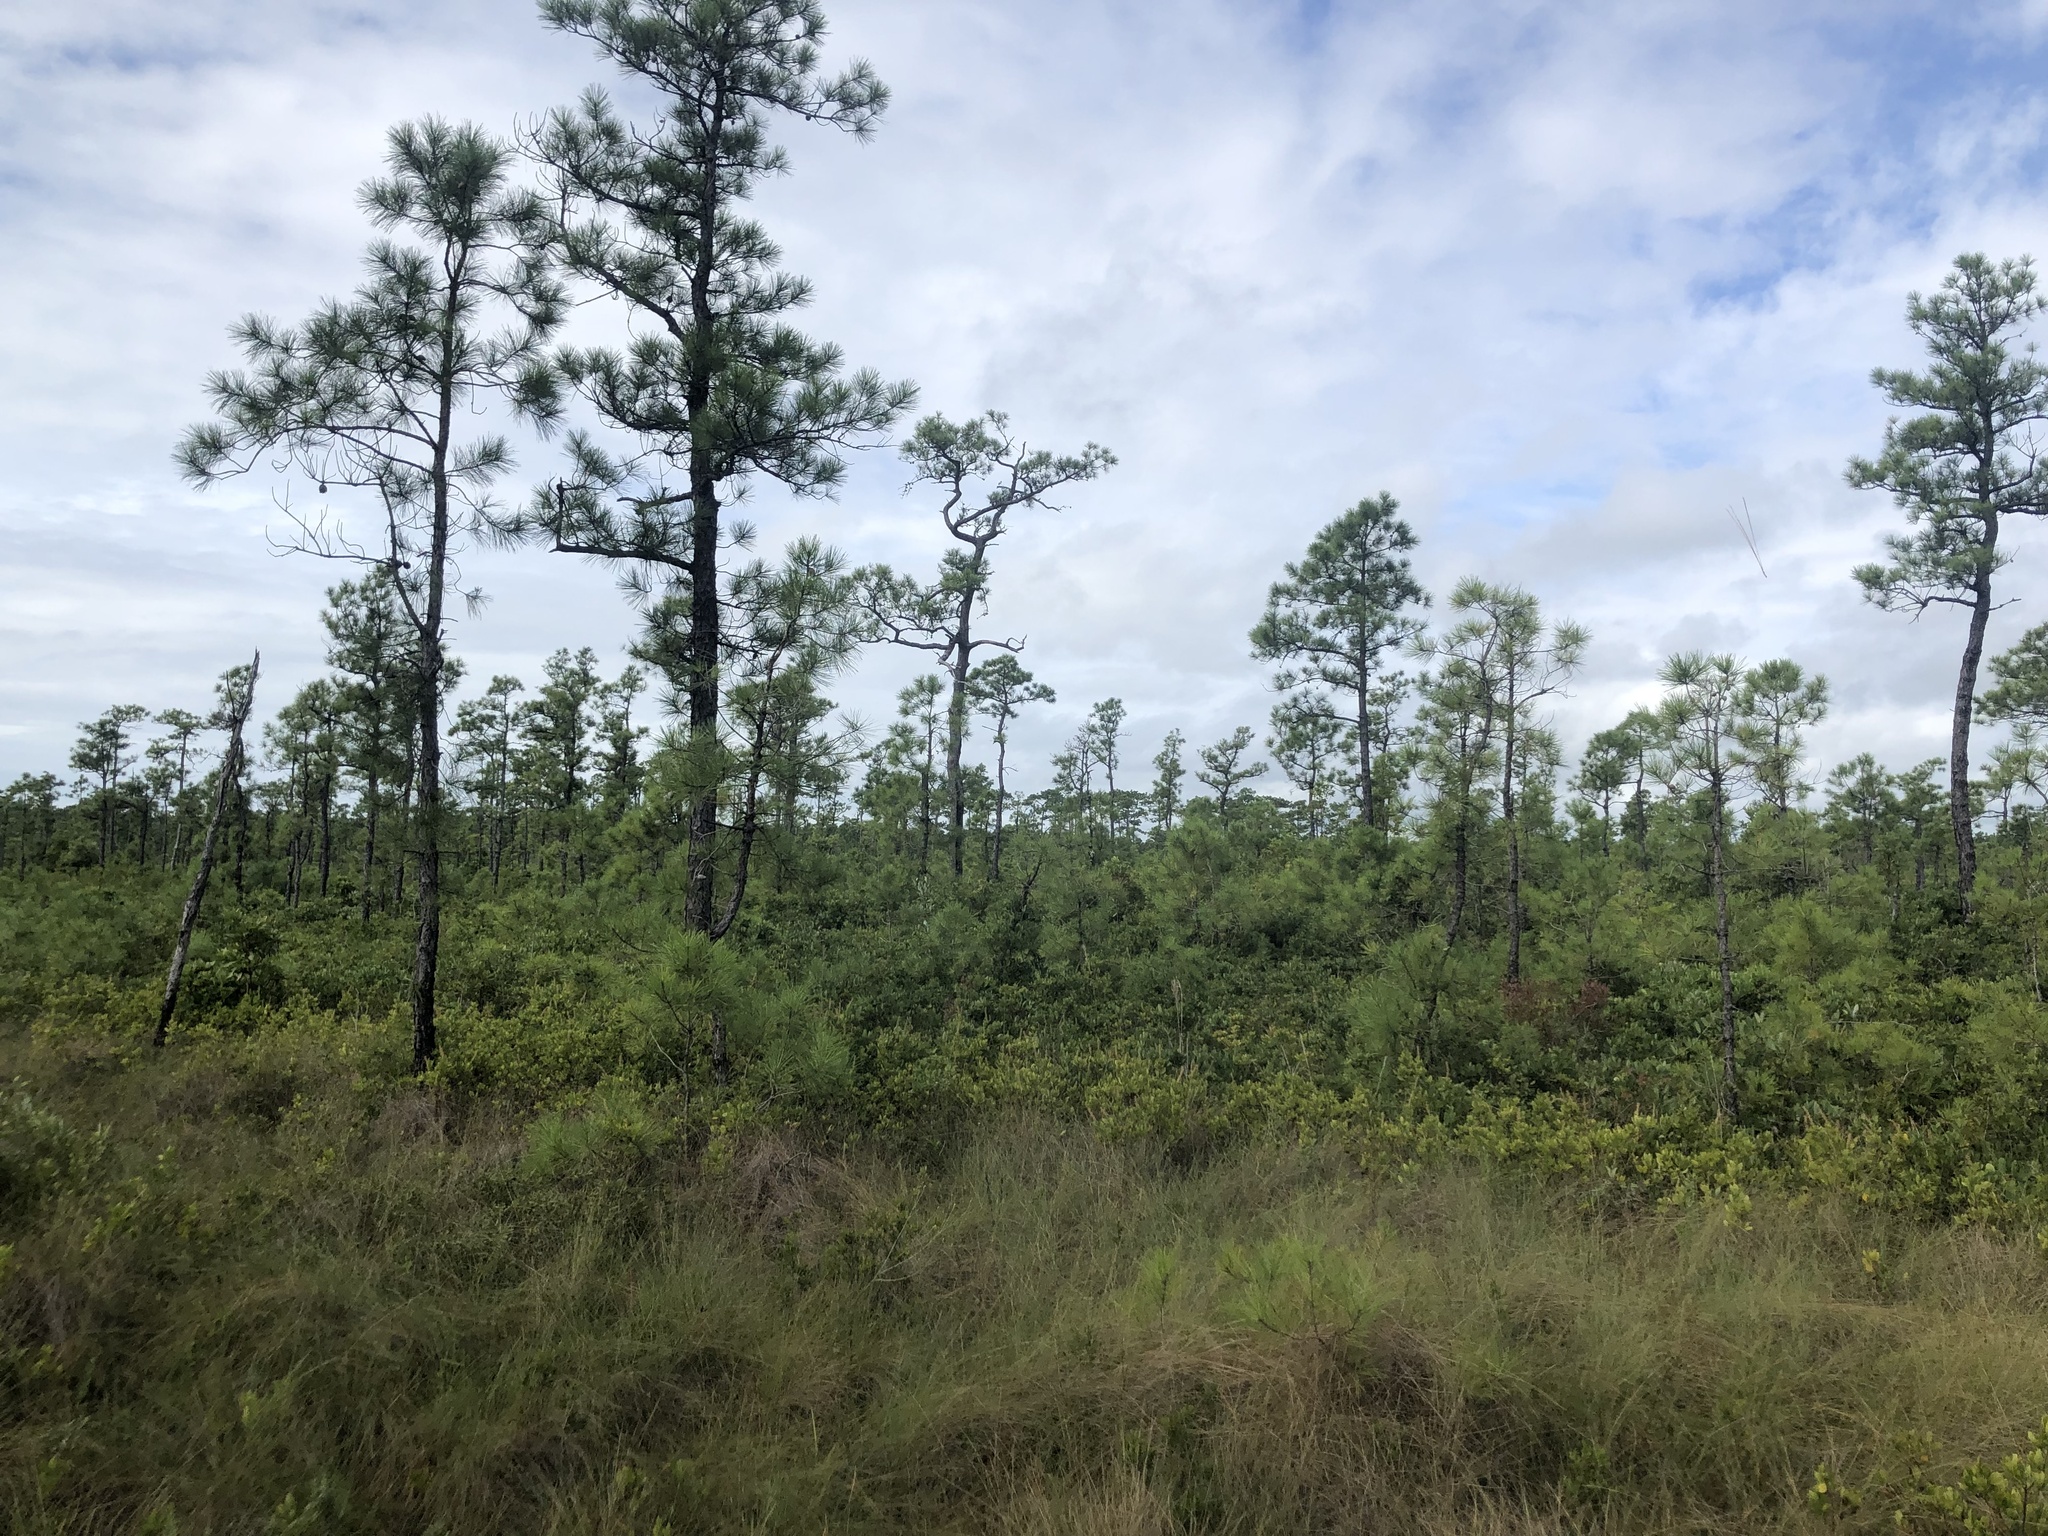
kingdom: Plantae
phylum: Tracheophyta
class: Pinopsida
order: Pinales
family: Pinaceae
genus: Pinus
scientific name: Pinus serotina
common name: Marsh pine
